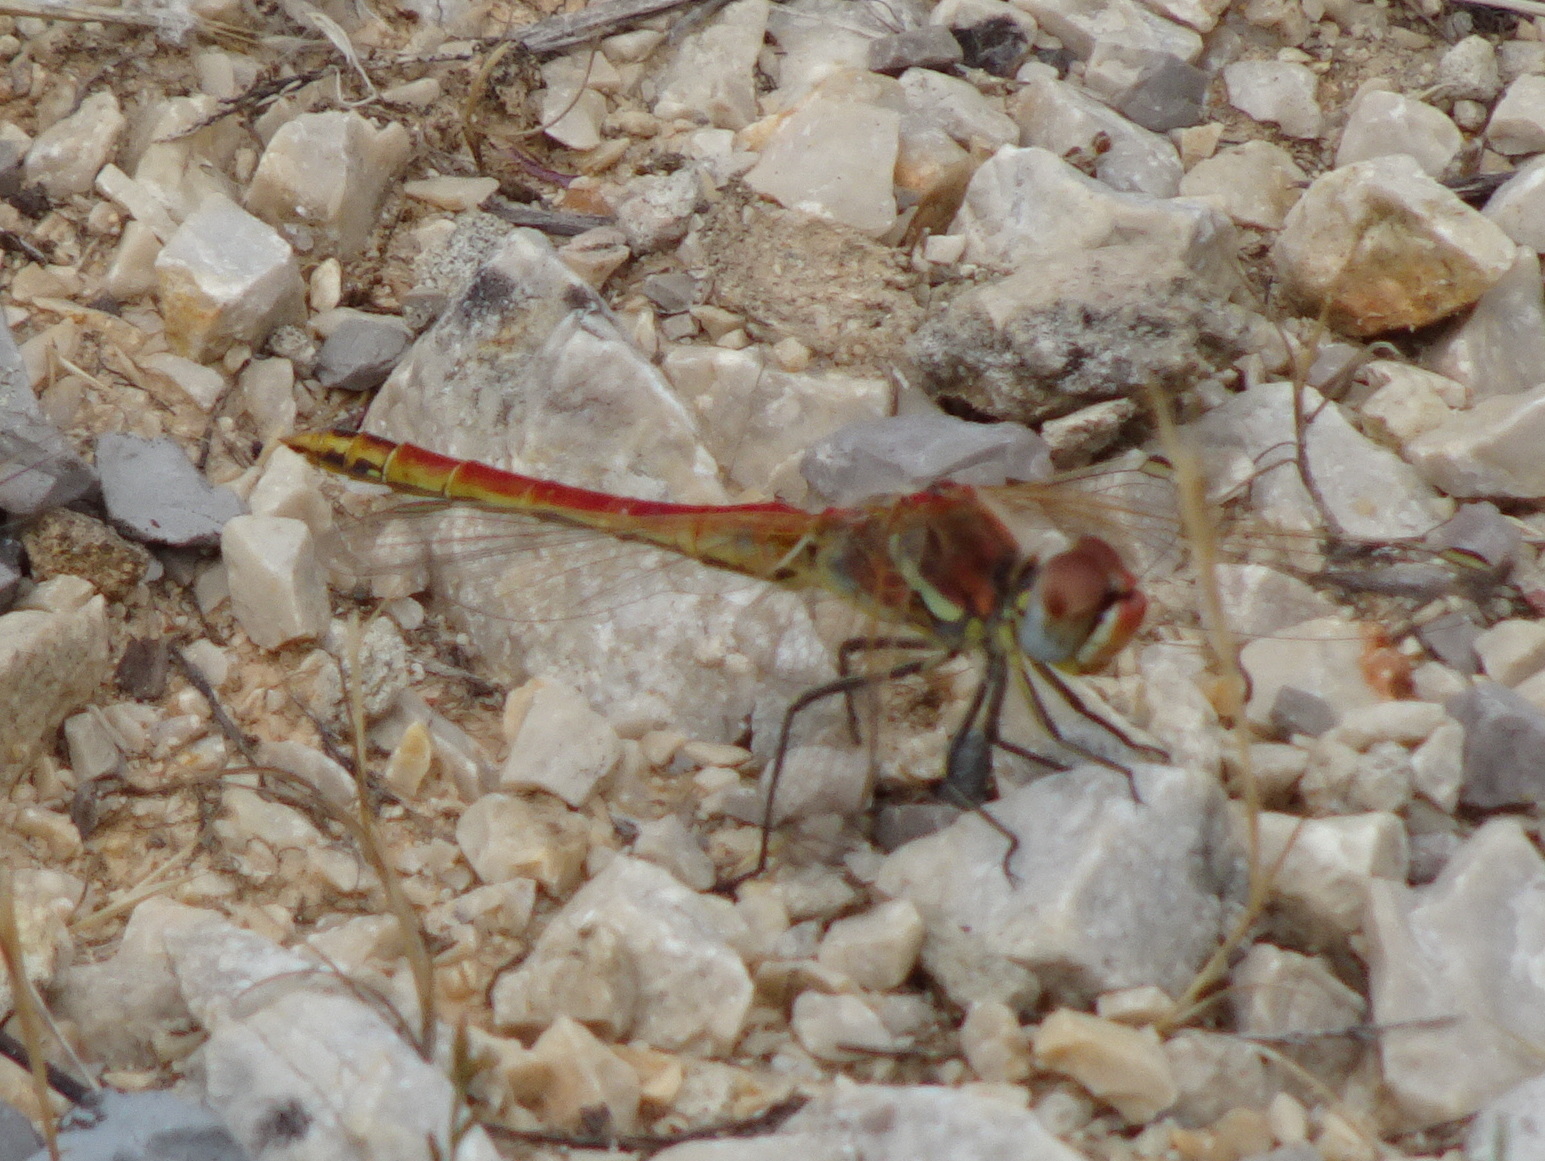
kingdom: Animalia
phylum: Arthropoda
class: Insecta
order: Odonata
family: Libellulidae
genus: Sympetrum
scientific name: Sympetrum fonscolombii
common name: Red-veined darter
